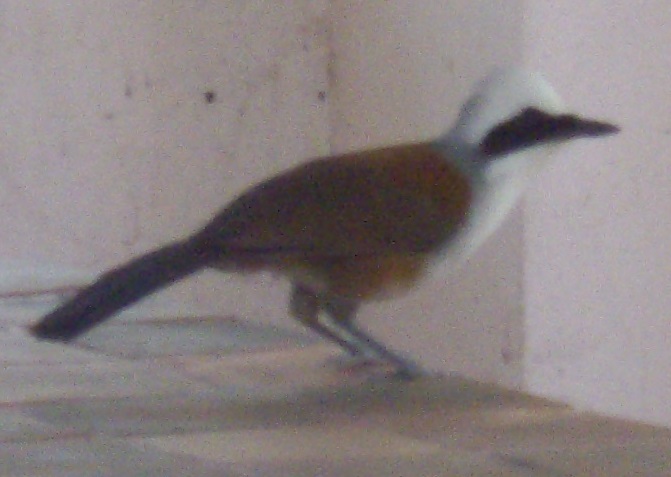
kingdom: Animalia
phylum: Chordata
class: Aves
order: Passeriformes
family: Leiothrichidae
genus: Garrulax
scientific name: Garrulax leucolophus
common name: White-crested laughingthrush
